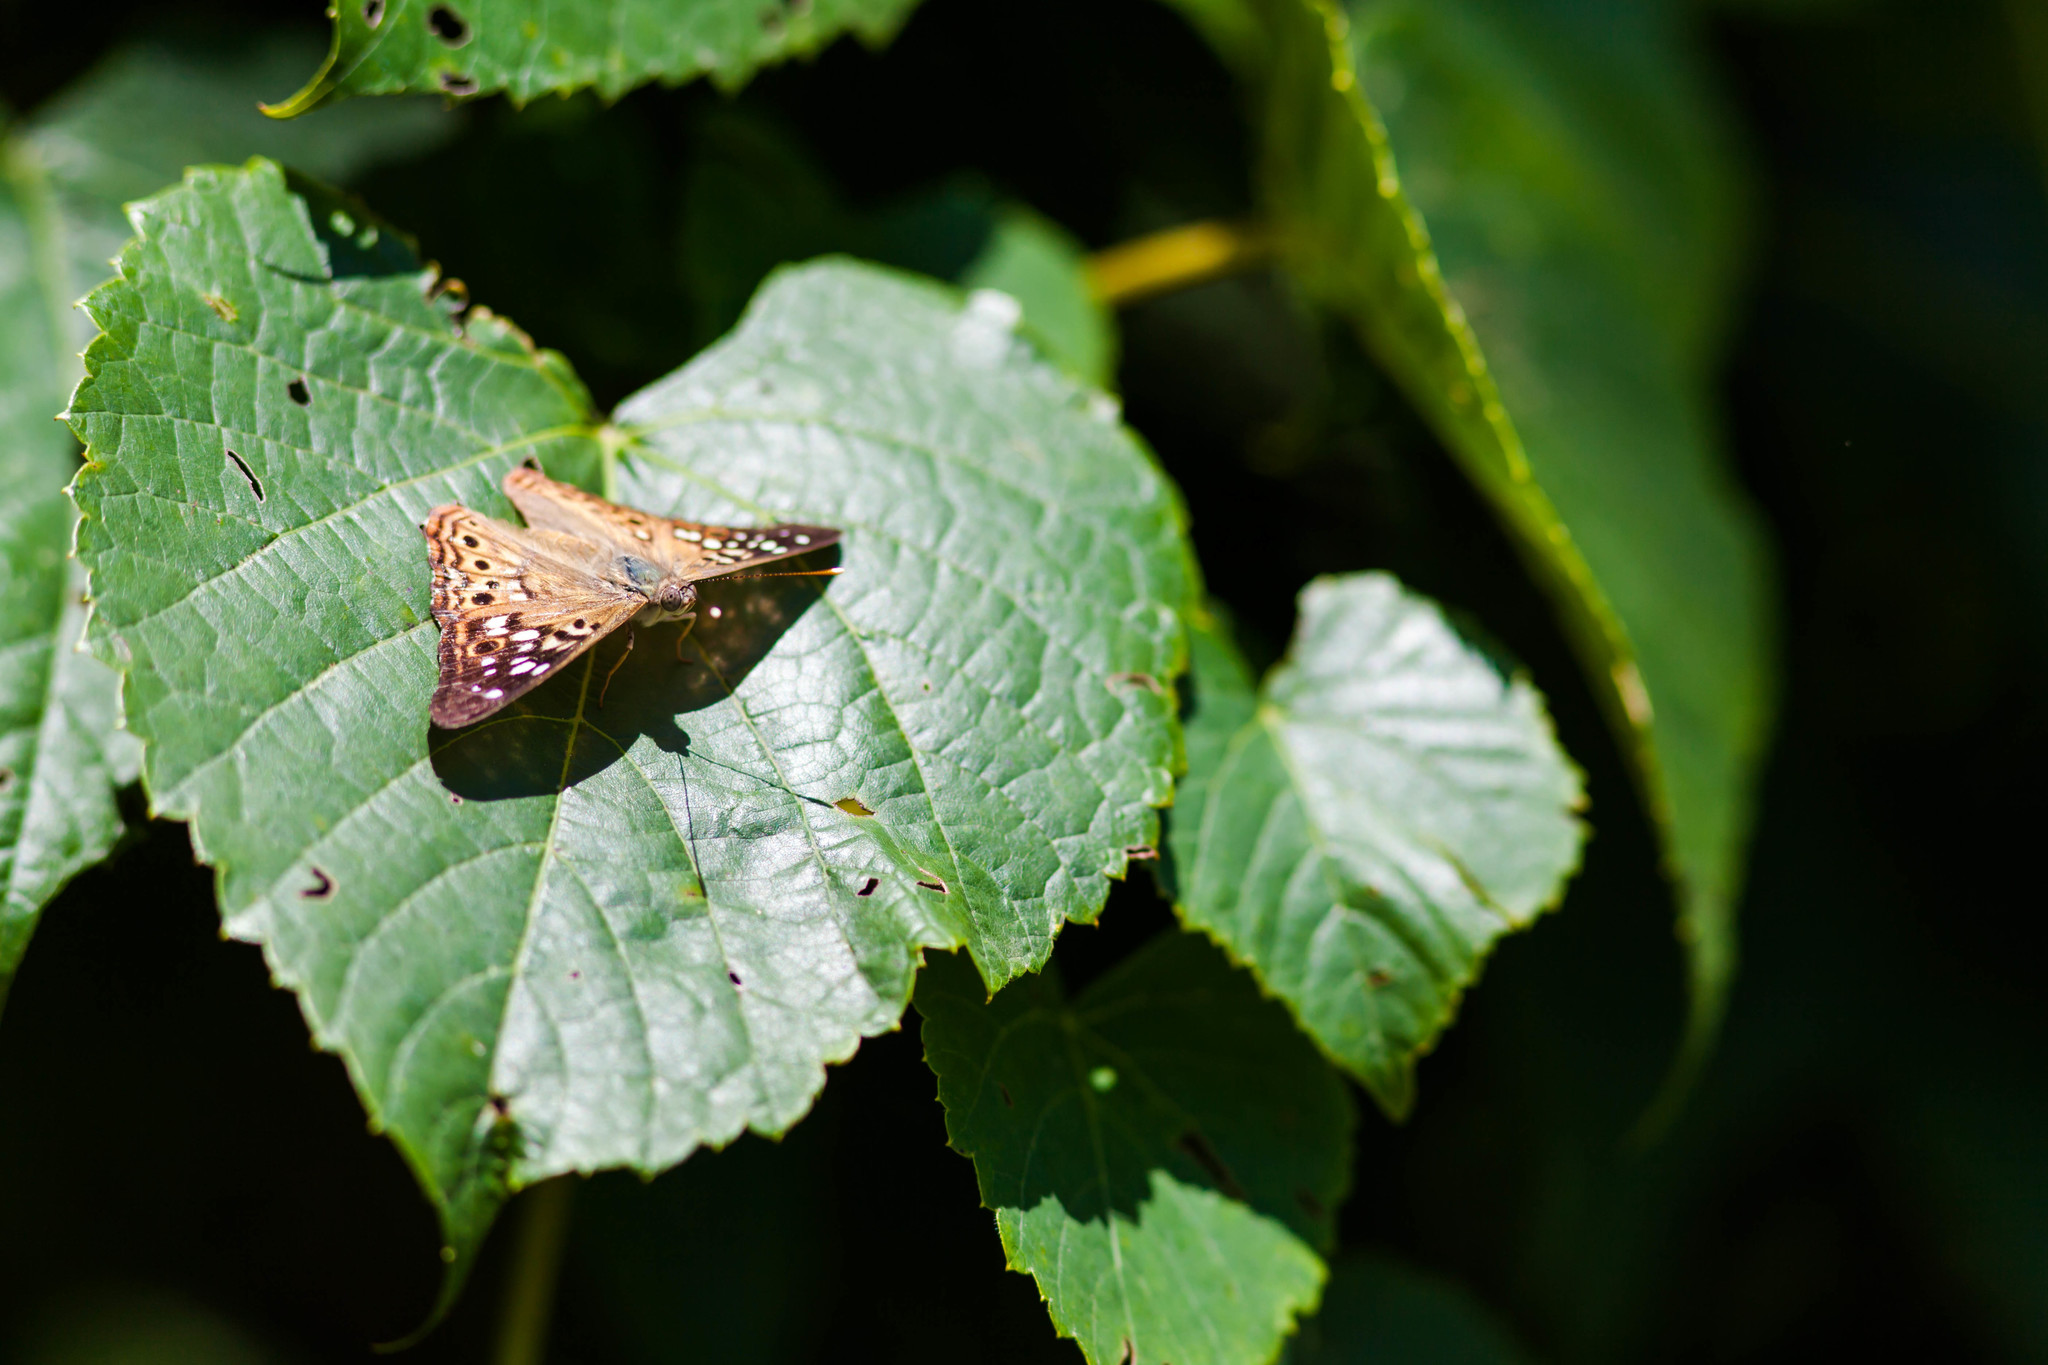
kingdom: Animalia
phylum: Arthropoda
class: Insecta
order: Lepidoptera
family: Nymphalidae
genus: Asterocampa
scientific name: Asterocampa celtis
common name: Hackberry emperor
